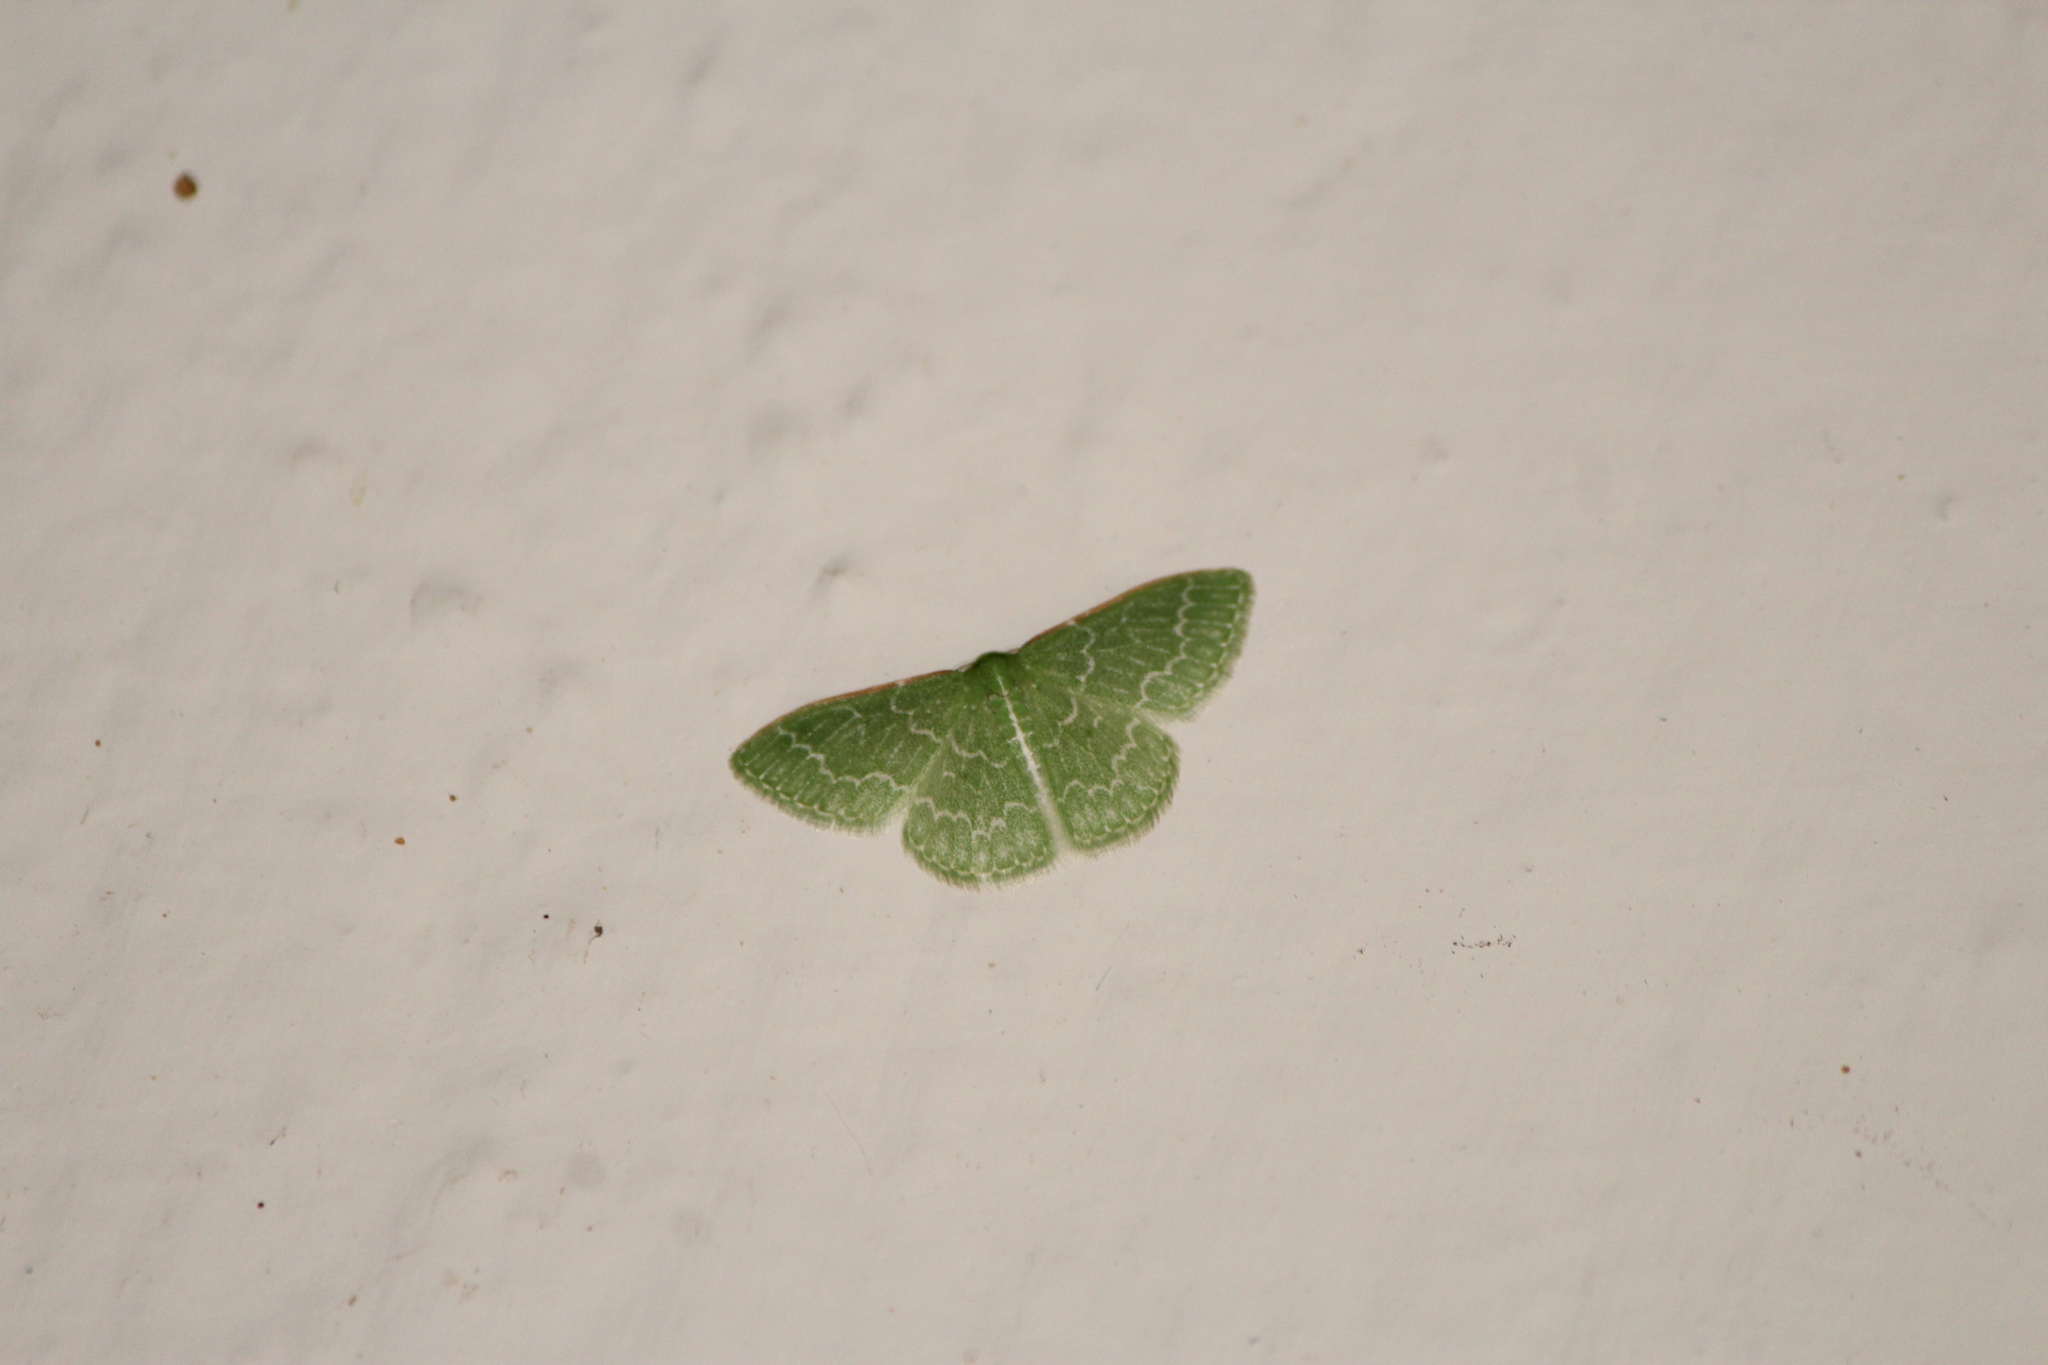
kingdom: Animalia
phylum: Arthropoda
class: Insecta
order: Lepidoptera
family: Geometridae
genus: Synchlora
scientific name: Synchlora frondaria
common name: Southern emerald
